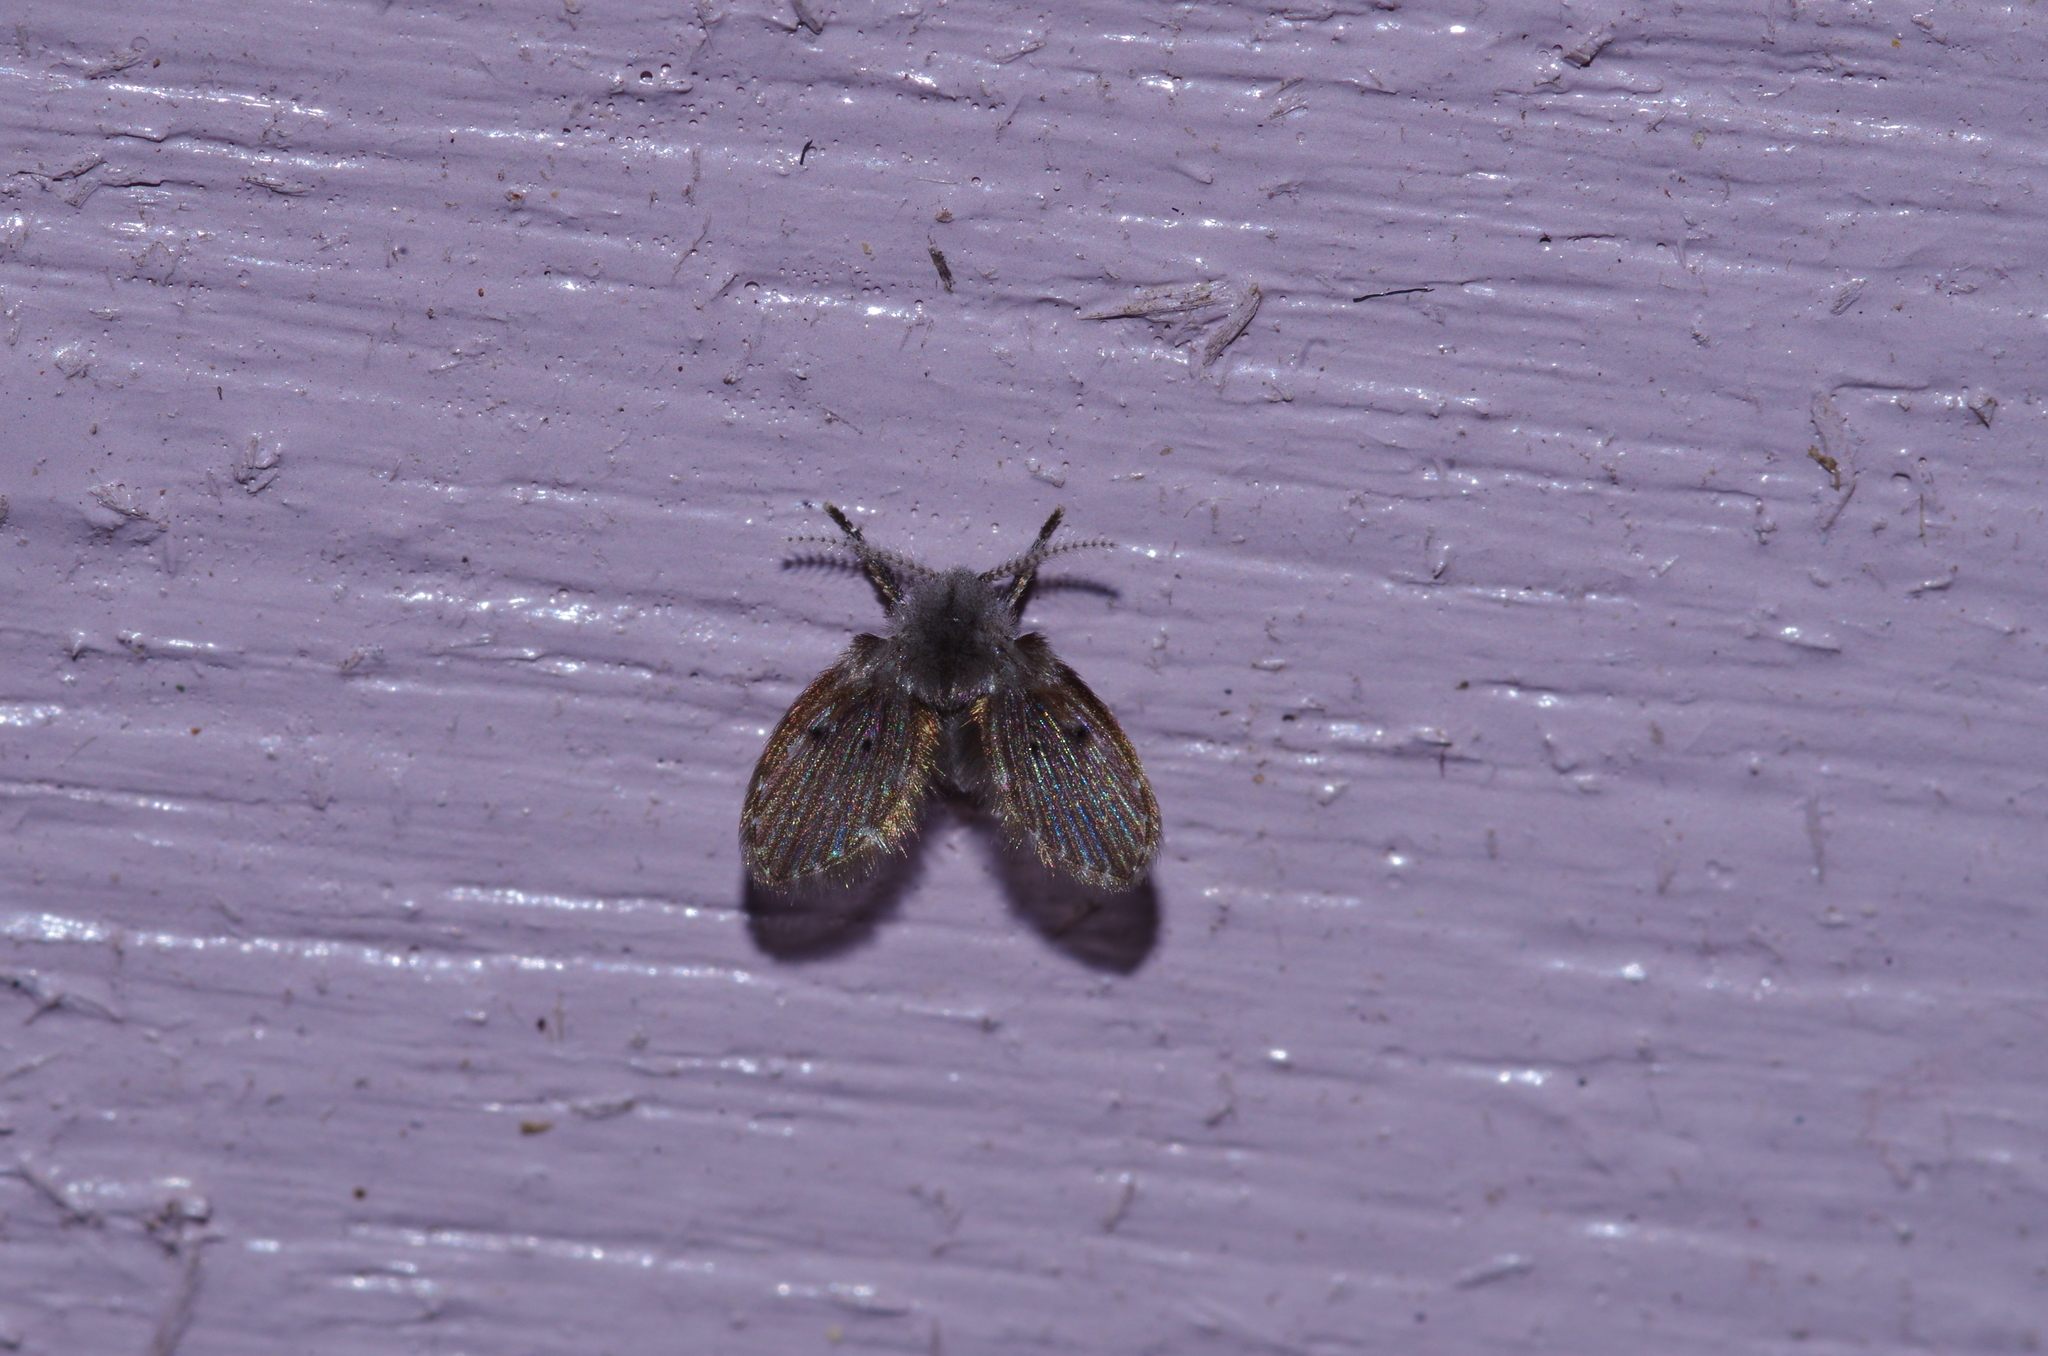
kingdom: Animalia
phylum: Arthropoda
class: Insecta
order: Diptera
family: Psychodidae
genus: Clogmia
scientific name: Clogmia albipunctatus
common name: White-spotted moth fly
